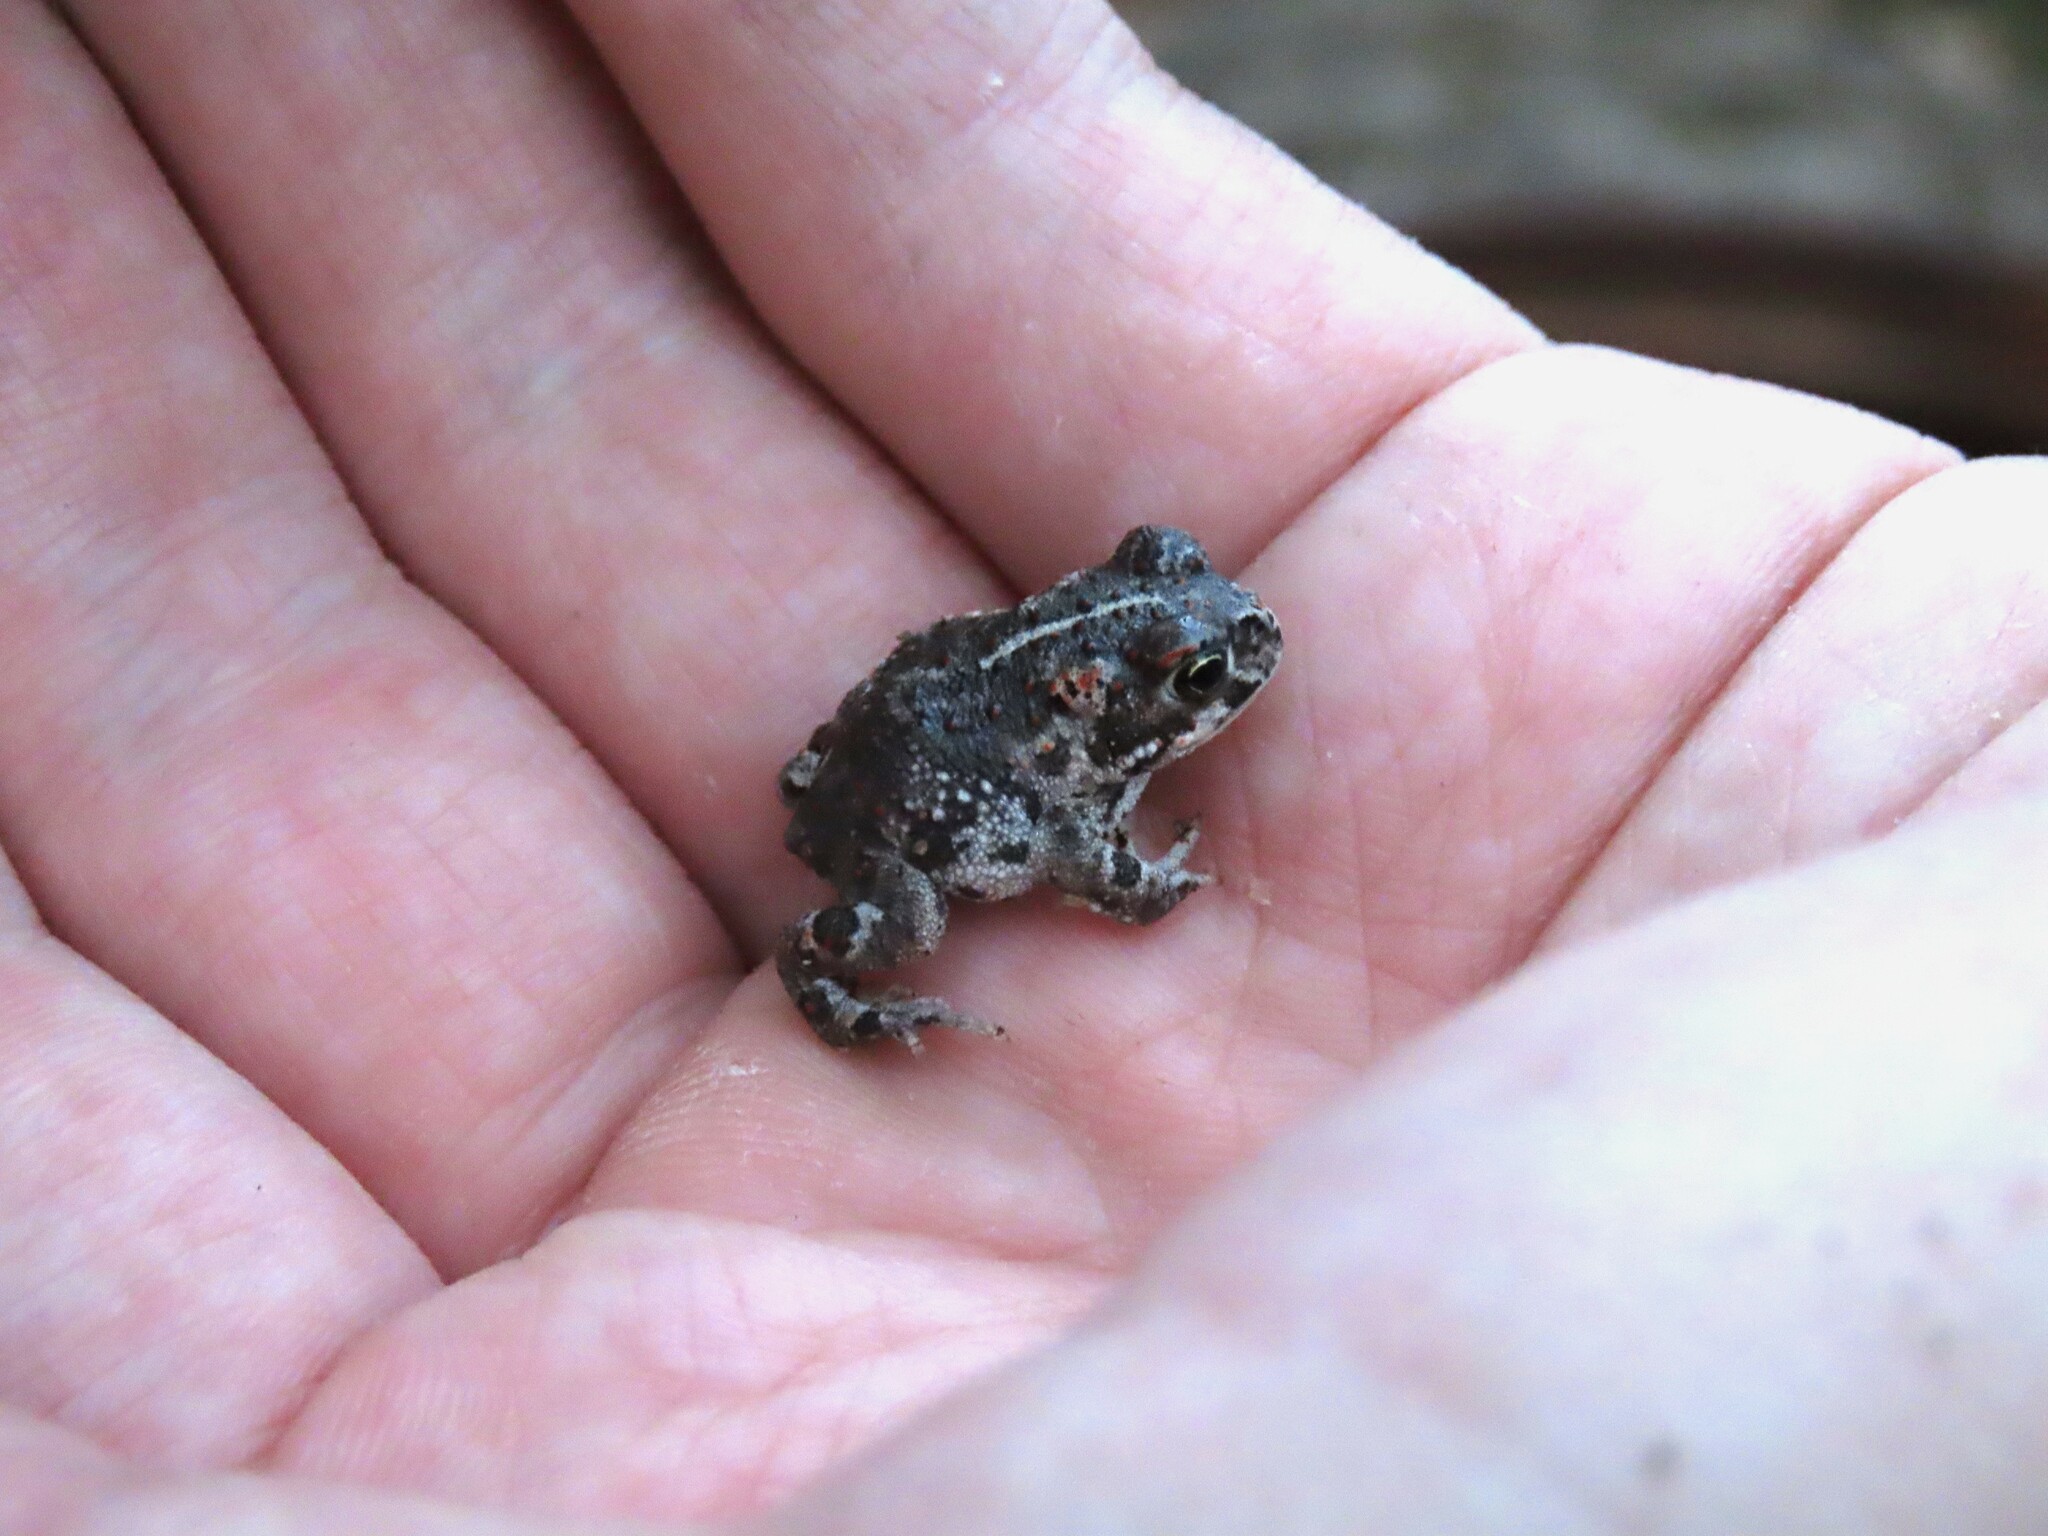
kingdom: Animalia
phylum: Chordata
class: Amphibia
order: Anura
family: Bufonidae
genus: Epidalea
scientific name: Epidalea calamita
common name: Natterjack toad
